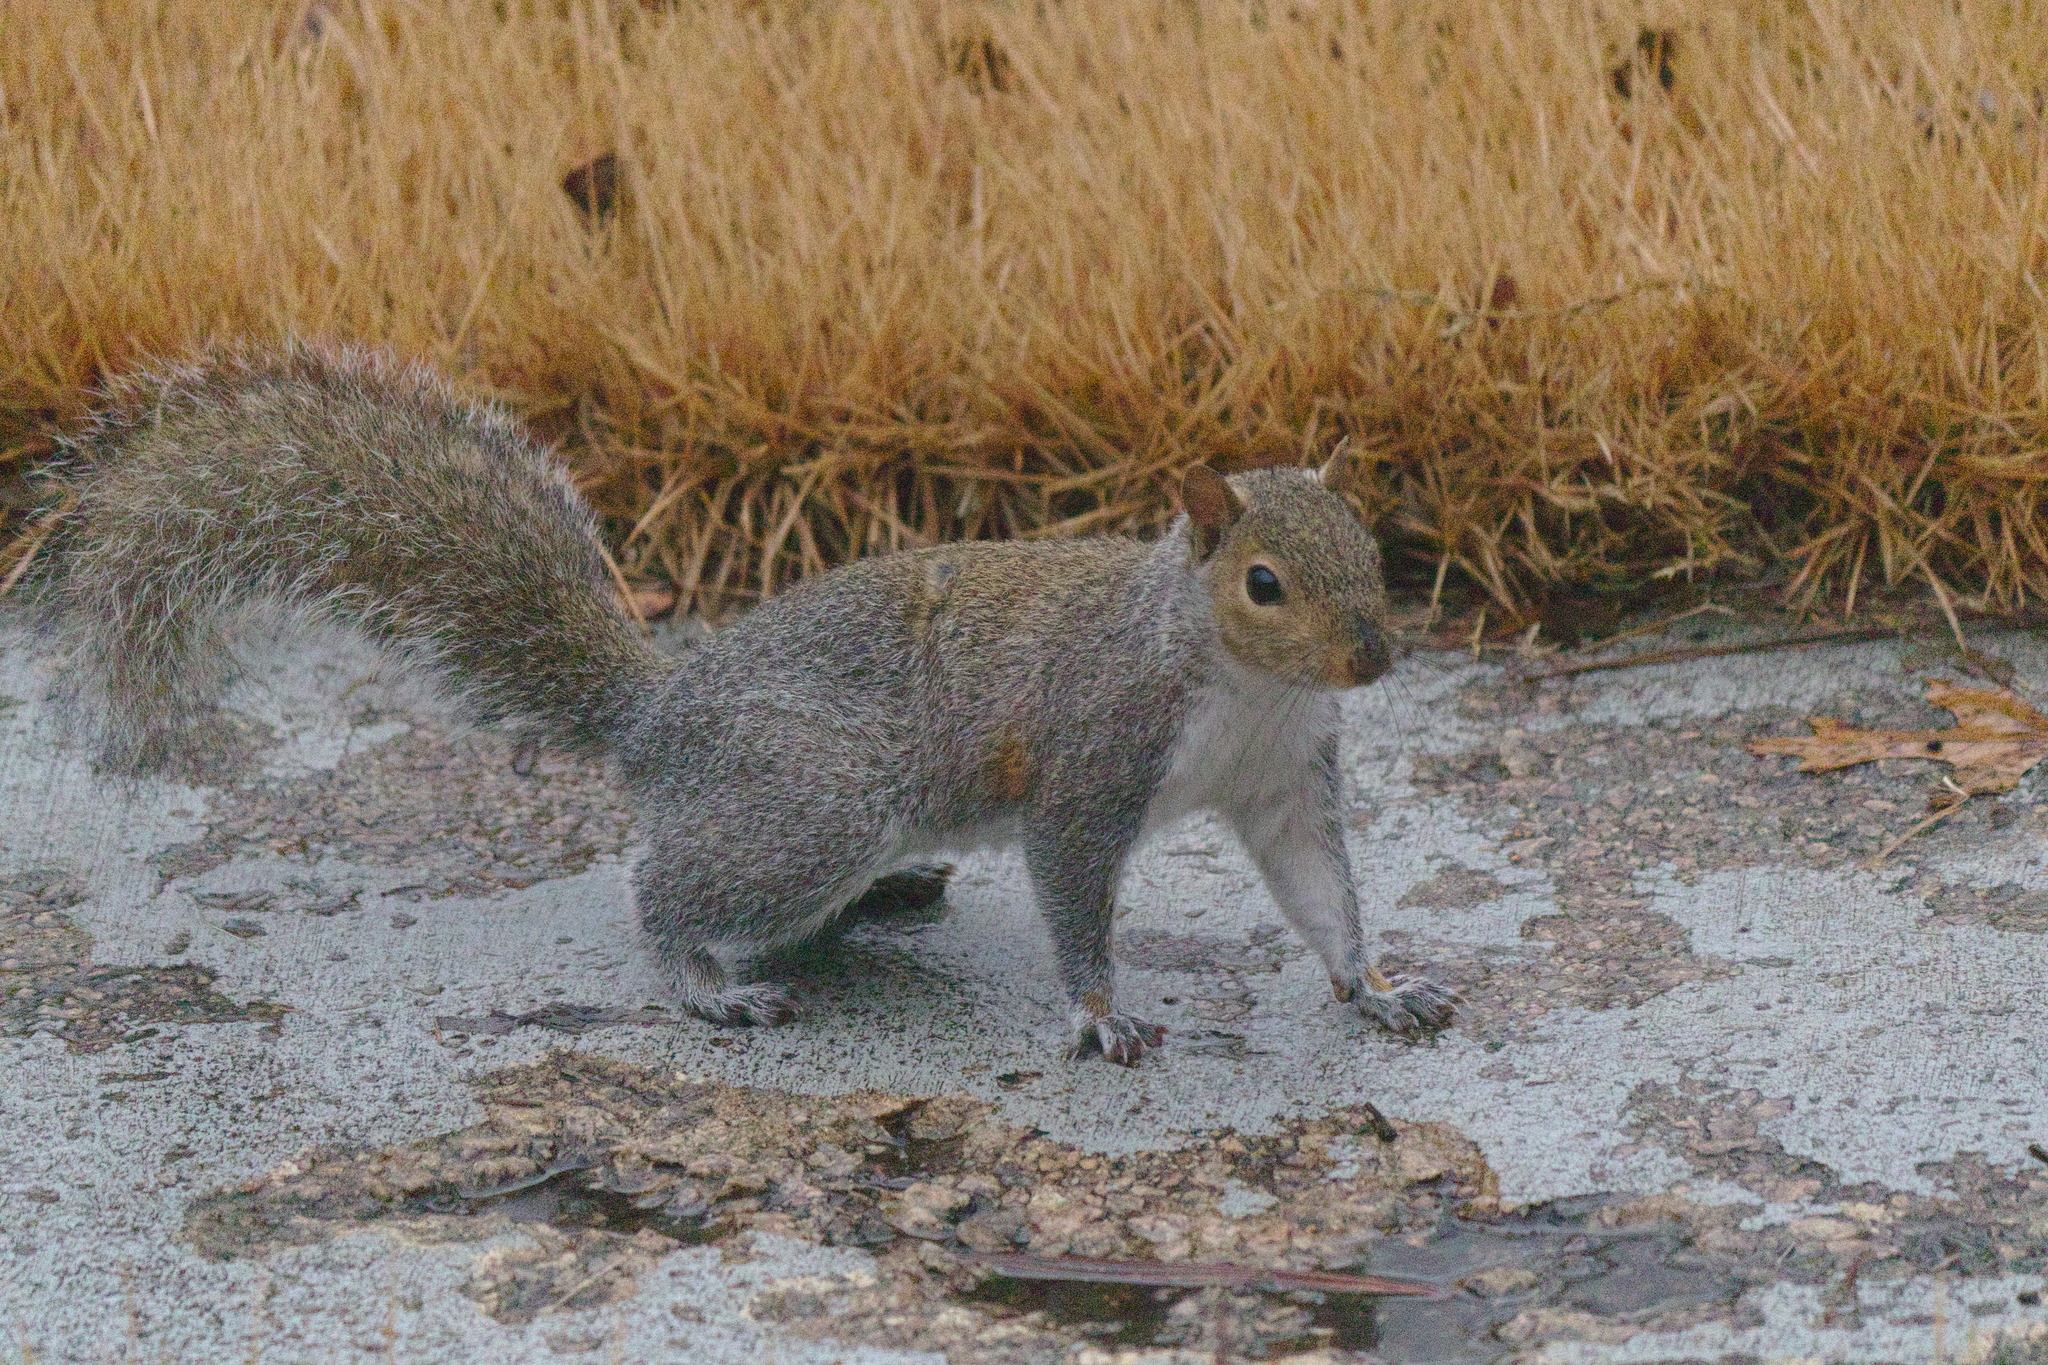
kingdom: Animalia
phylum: Chordata
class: Mammalia
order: Rodentia
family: Sciuridae
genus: Sciurus
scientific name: Sciurus carolinensis
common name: Eastern gray squirrel
